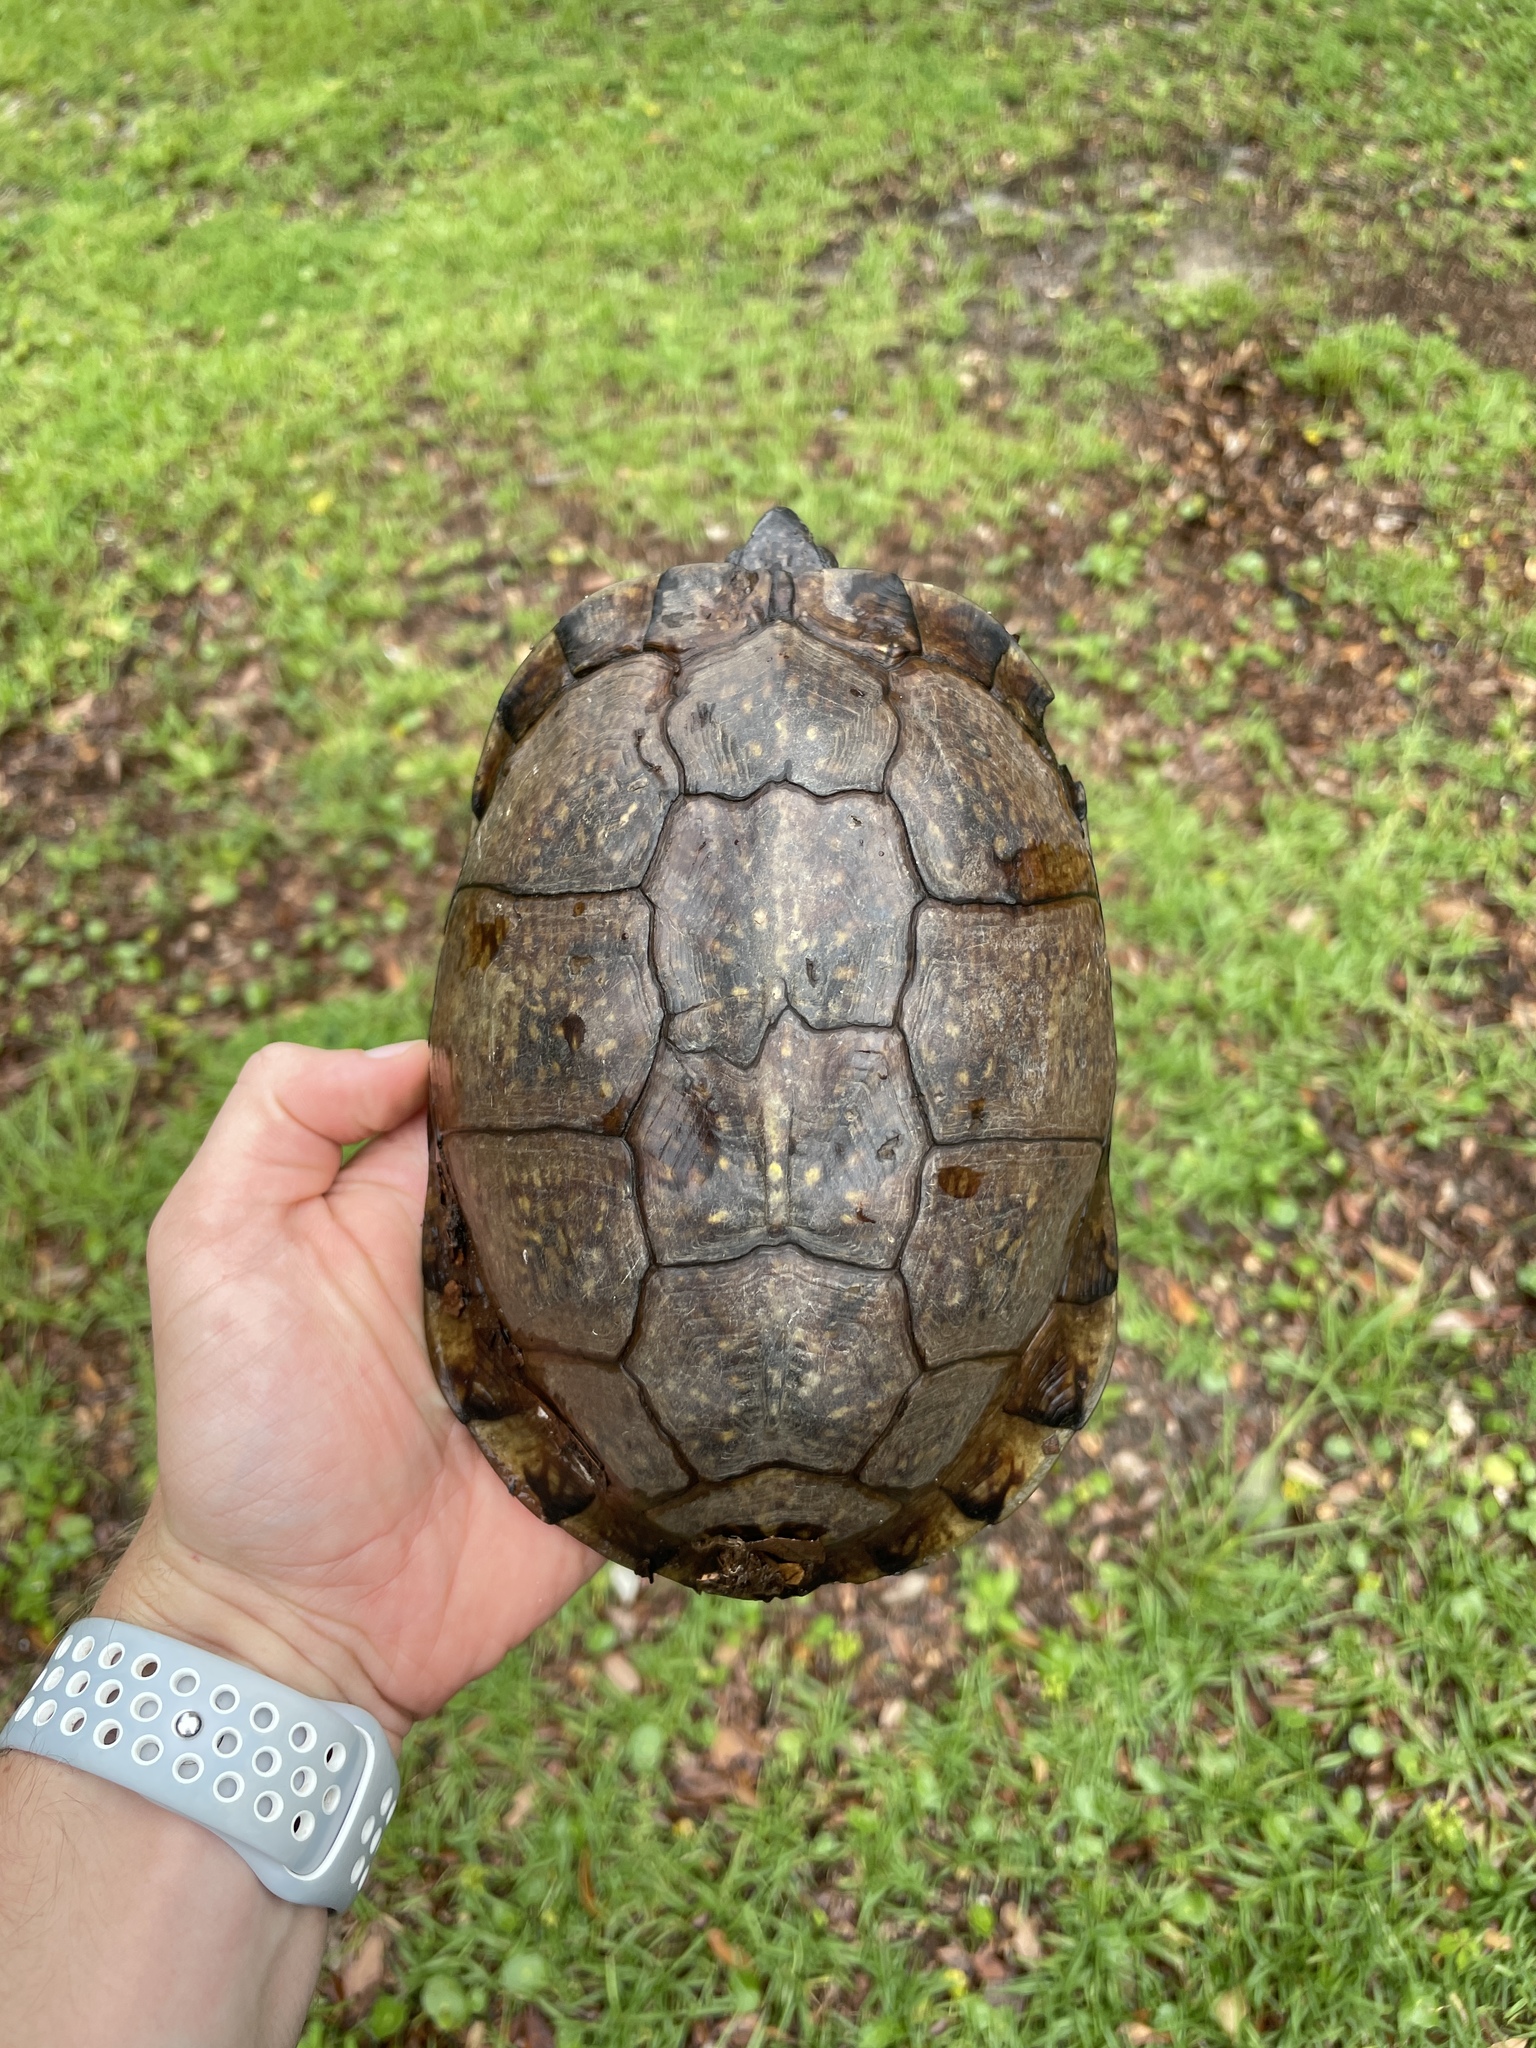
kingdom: Animalia
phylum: Chordata
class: Testudines
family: Emydidae
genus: Terrapene
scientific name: Terrapene carolina
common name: Common box turtle
